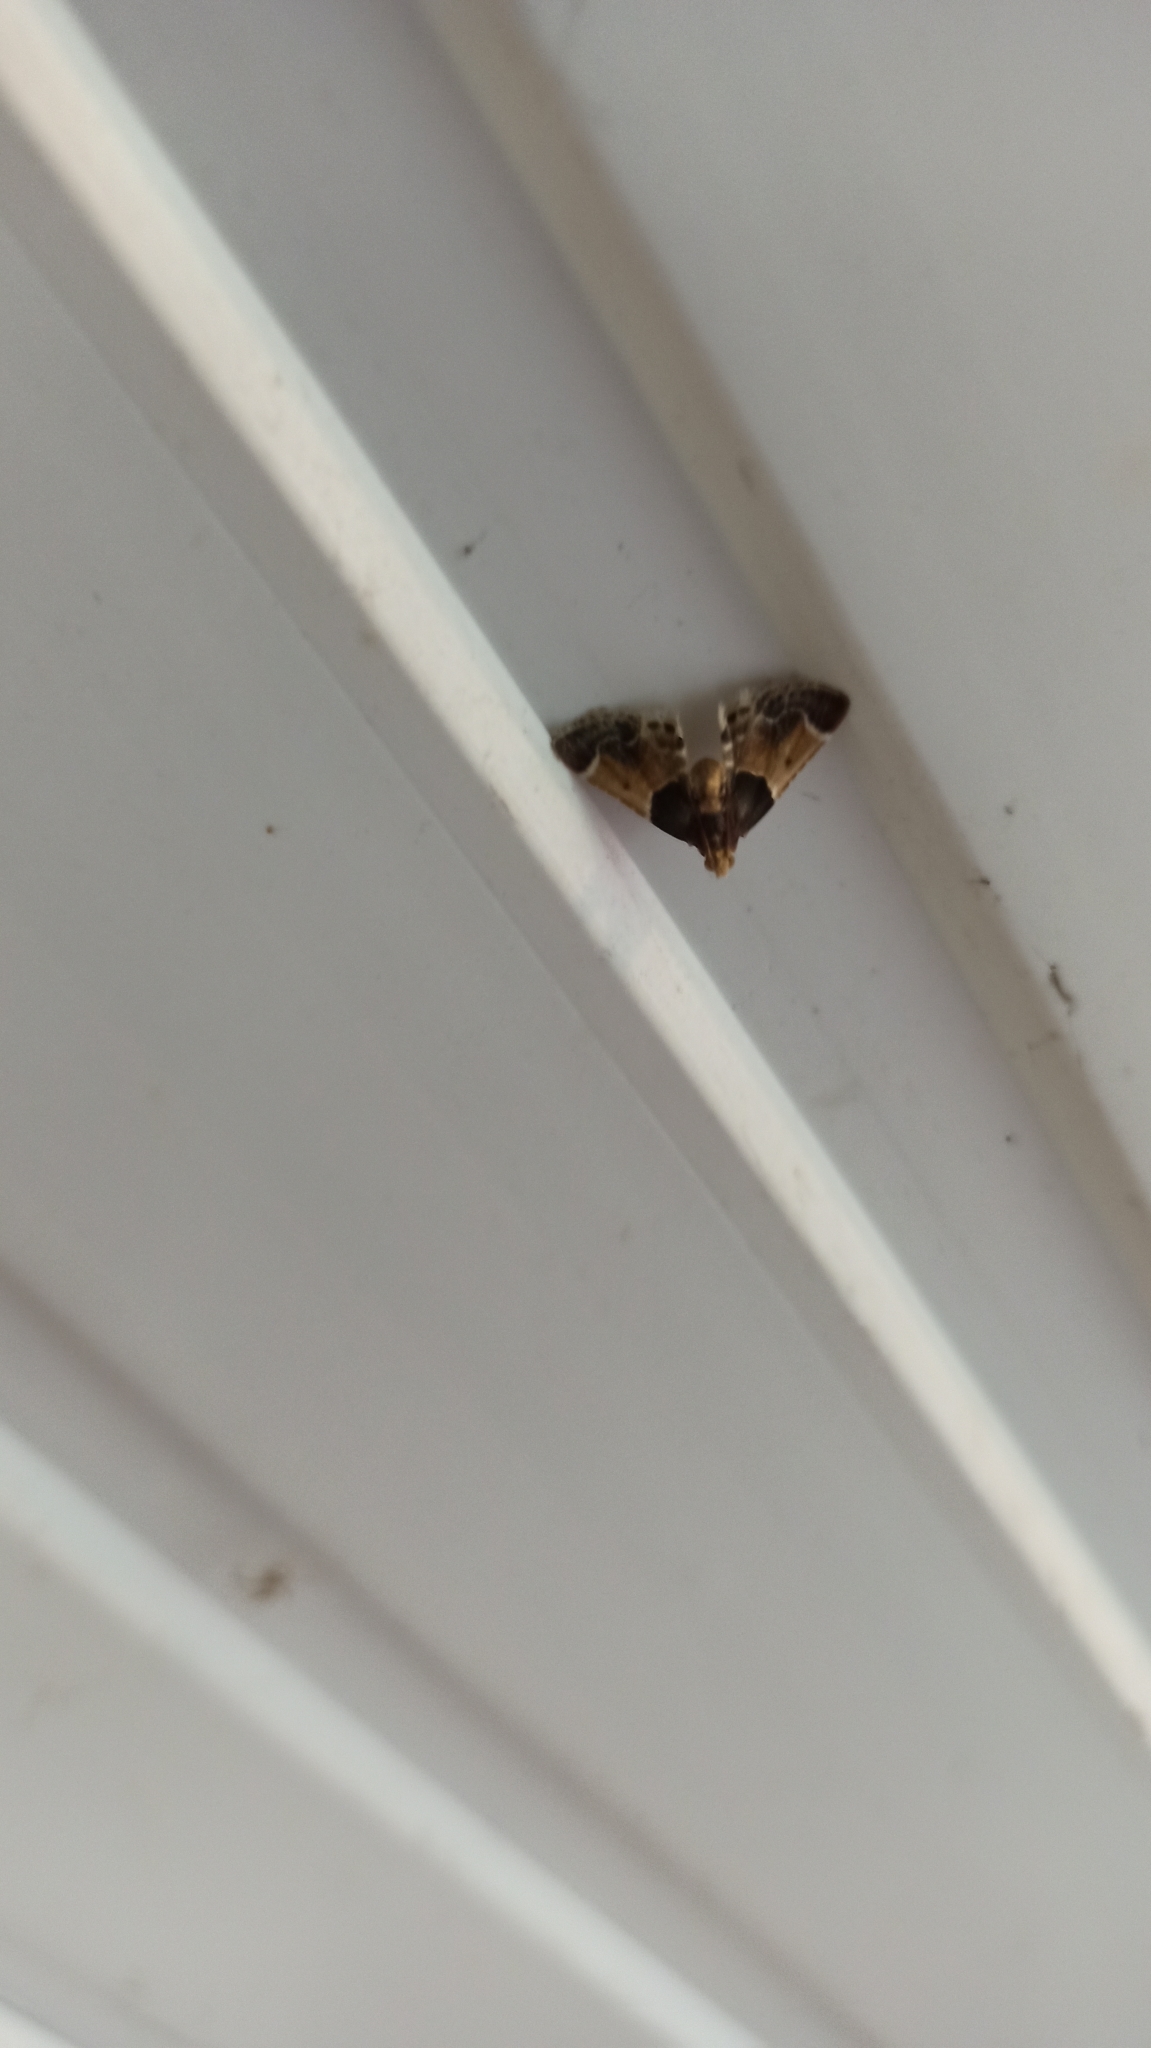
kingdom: Animalia
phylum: Arthropoda
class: Insecta
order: Lepidoptera
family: Pyralidae
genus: Pyralis
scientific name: Pyralis farinalis
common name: Meal moth
